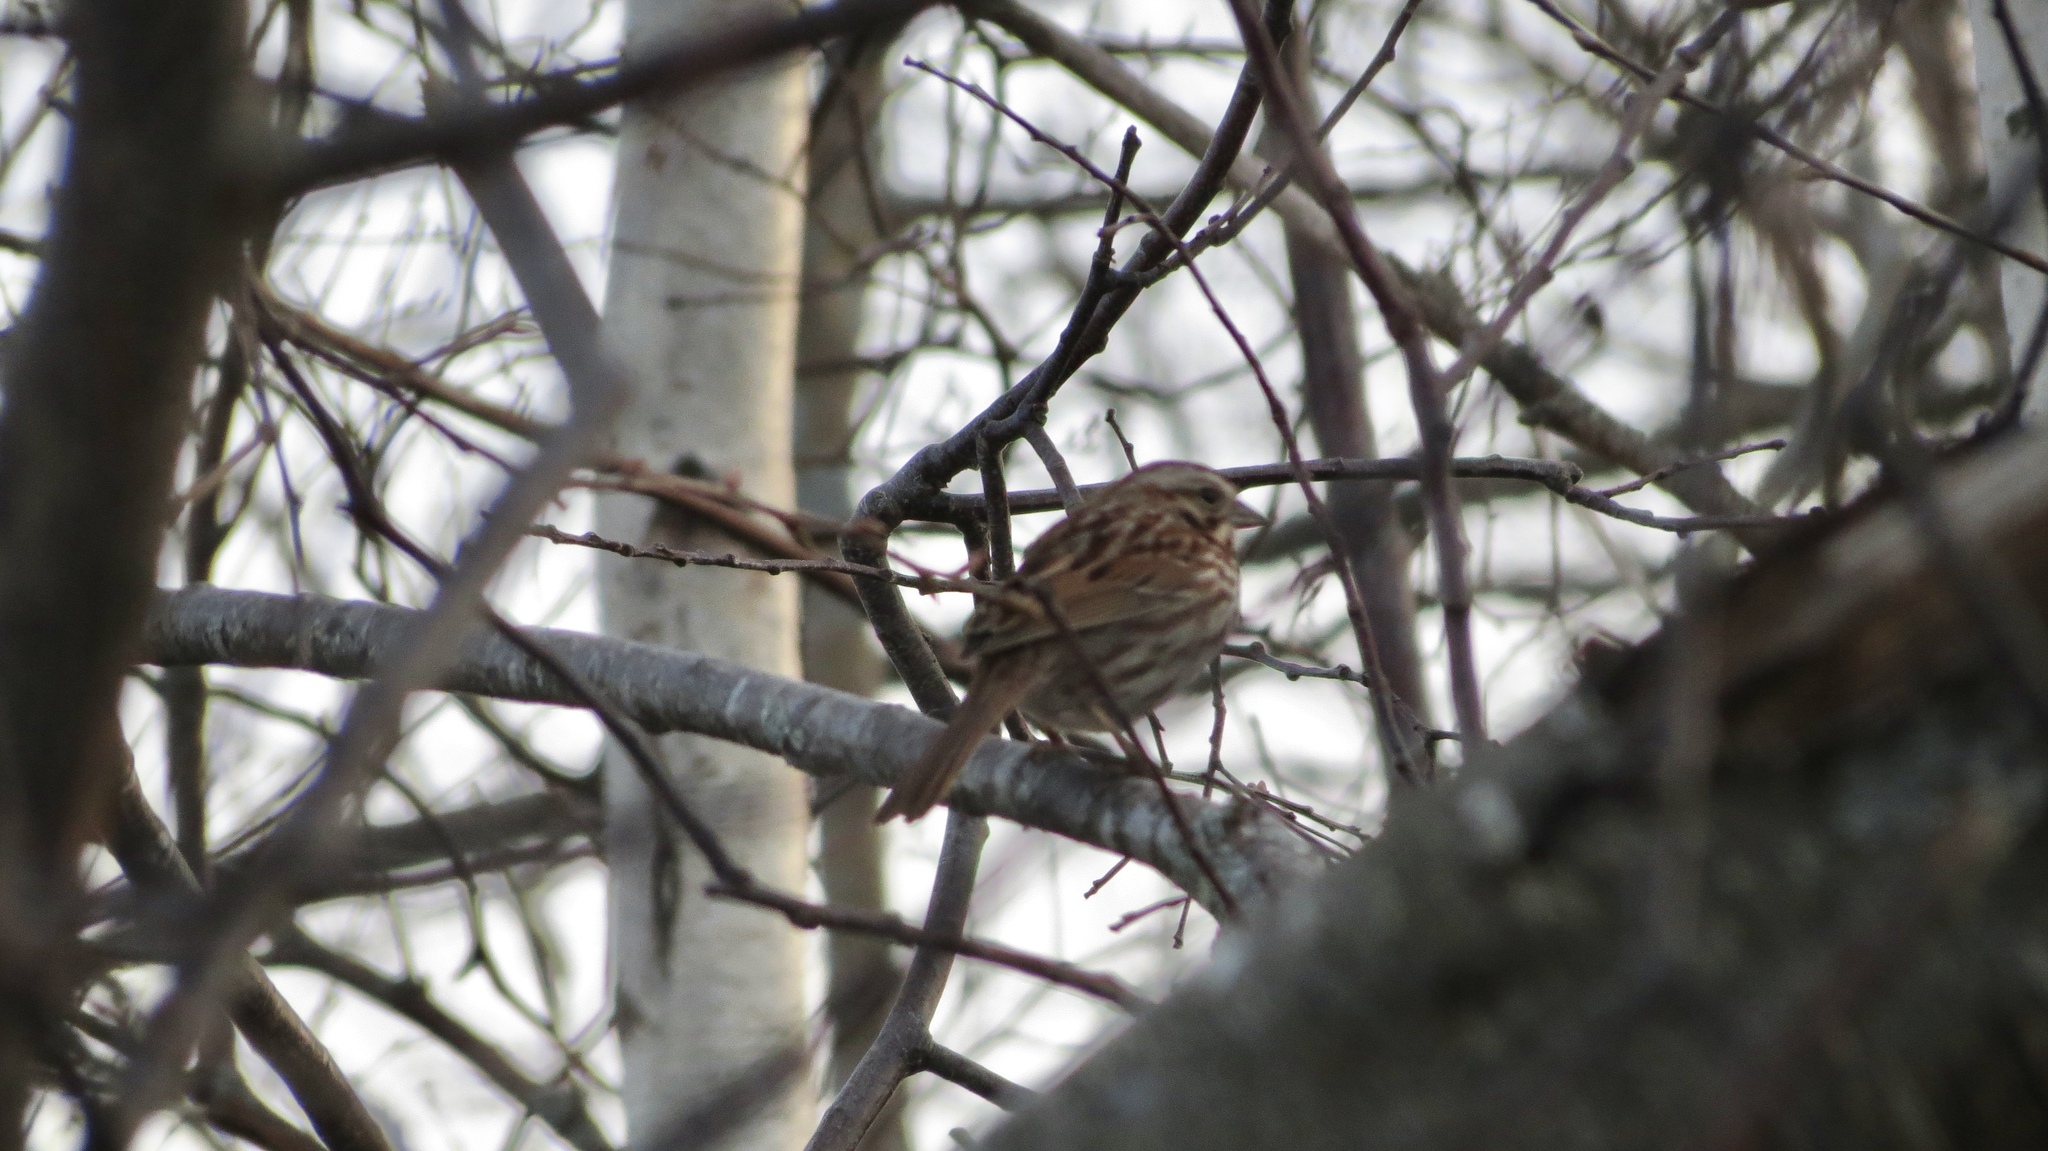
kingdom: Animalia
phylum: Chordata
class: Aves
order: Passeriformes
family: Passerellidae
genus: Melospiza
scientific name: Melospiza melodia
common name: Song sparrow
